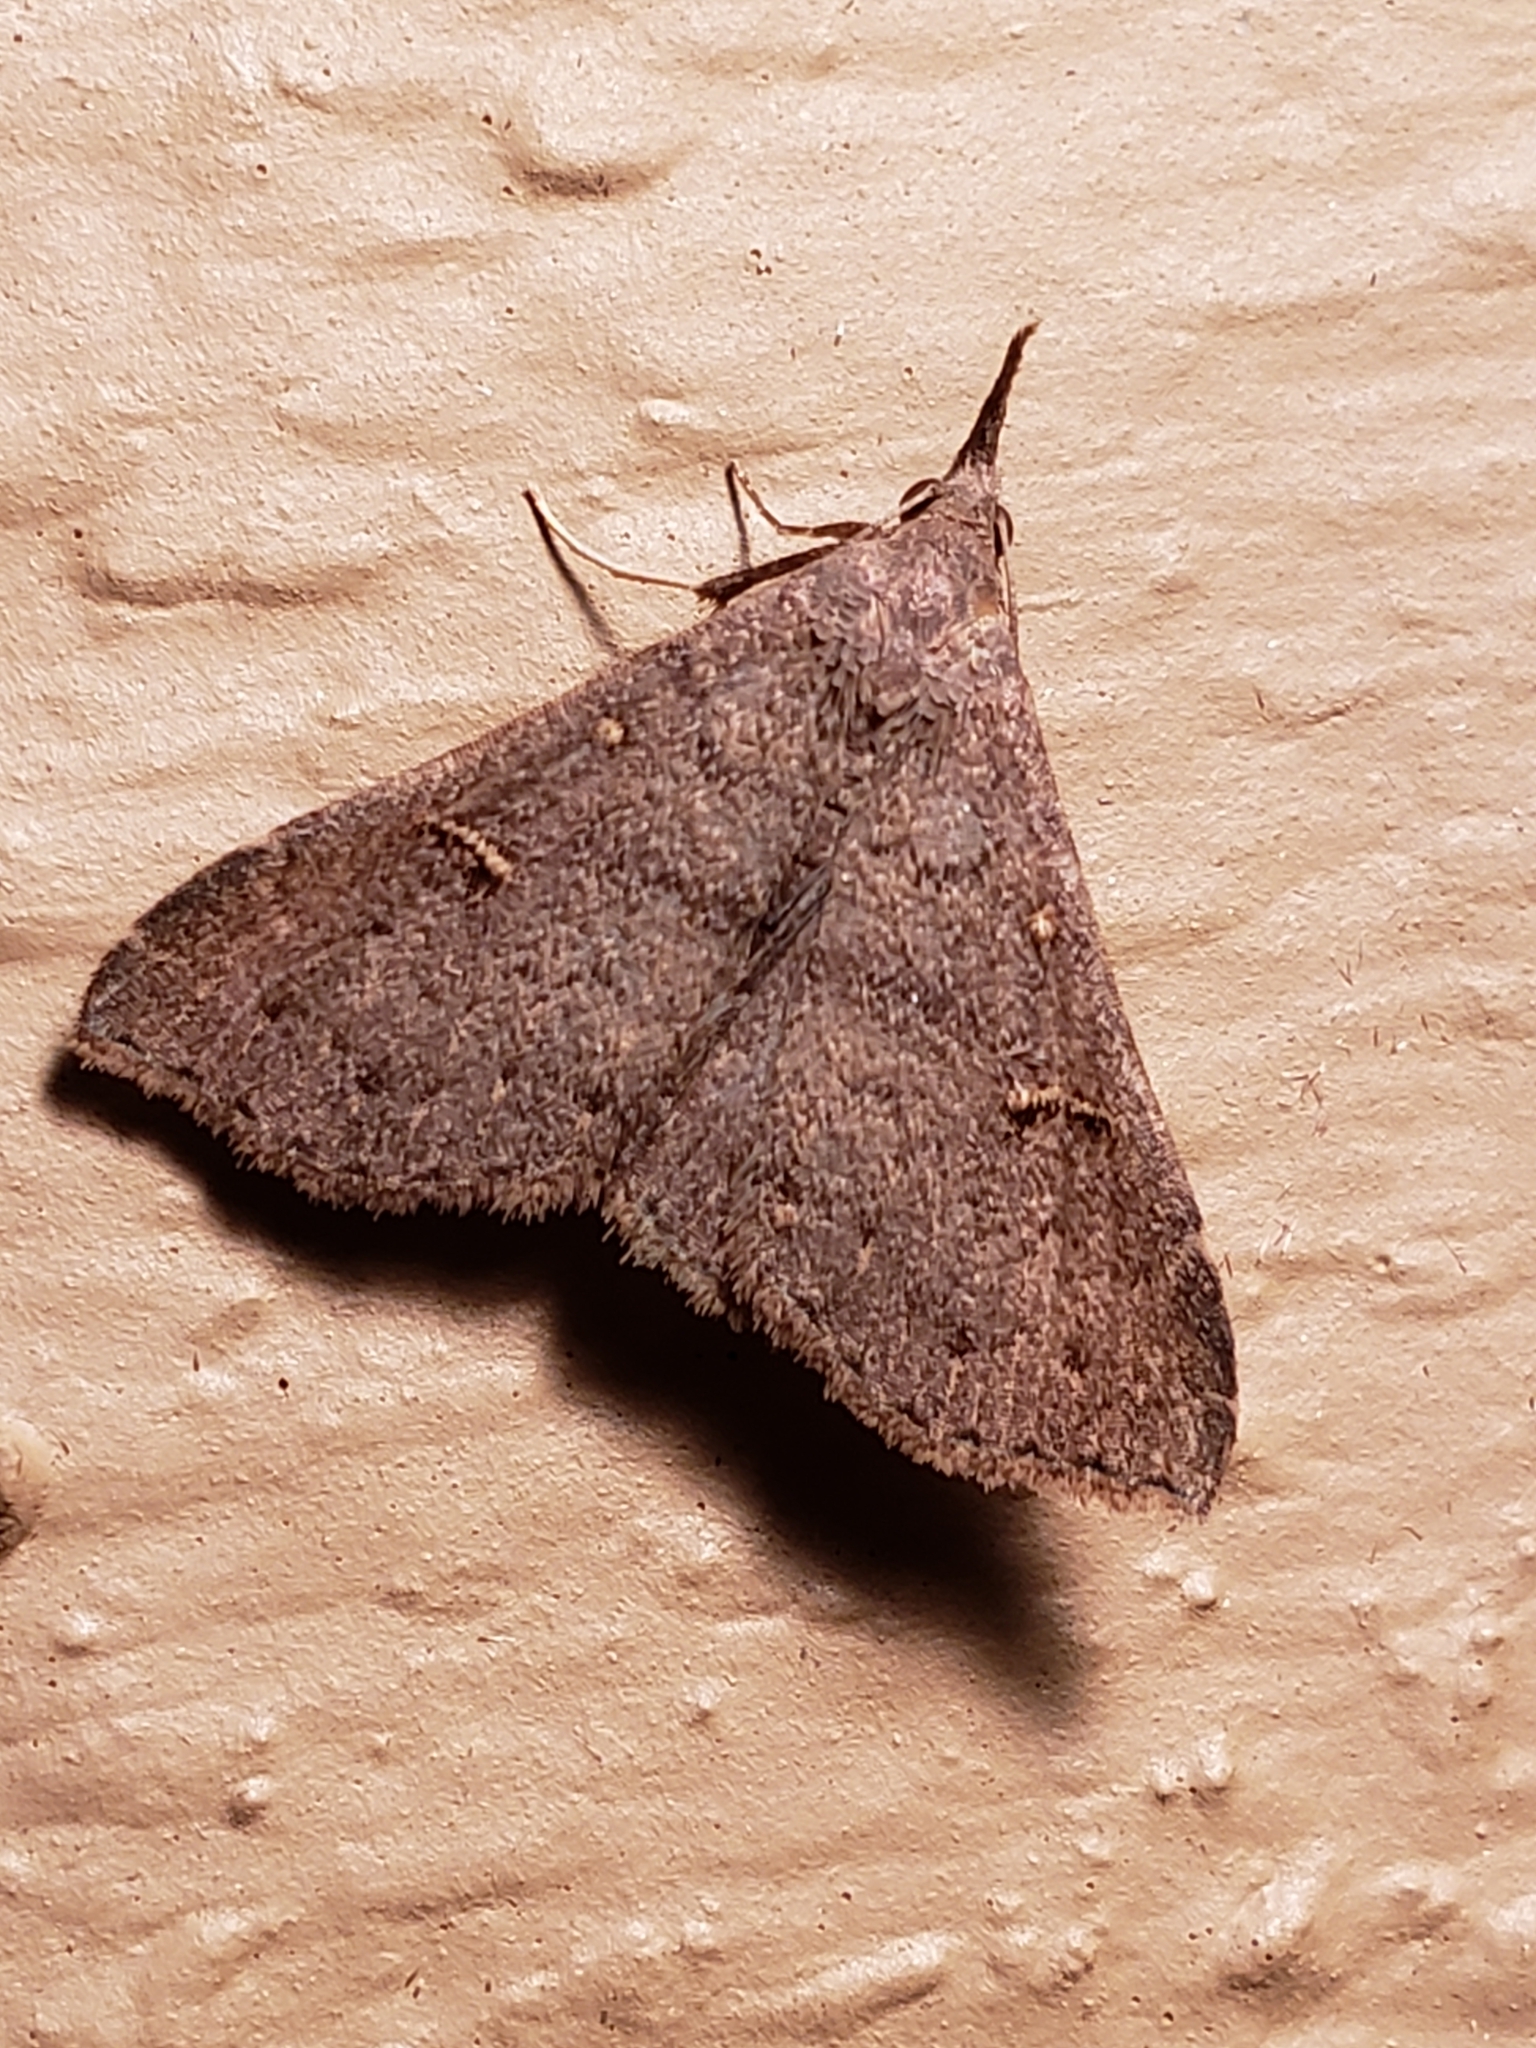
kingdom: Animalia
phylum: Arthropoda
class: Insecta
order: Lepidoptera
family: Erebidae
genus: Renia
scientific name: Renia adspergillus
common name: Speckled renia moth
